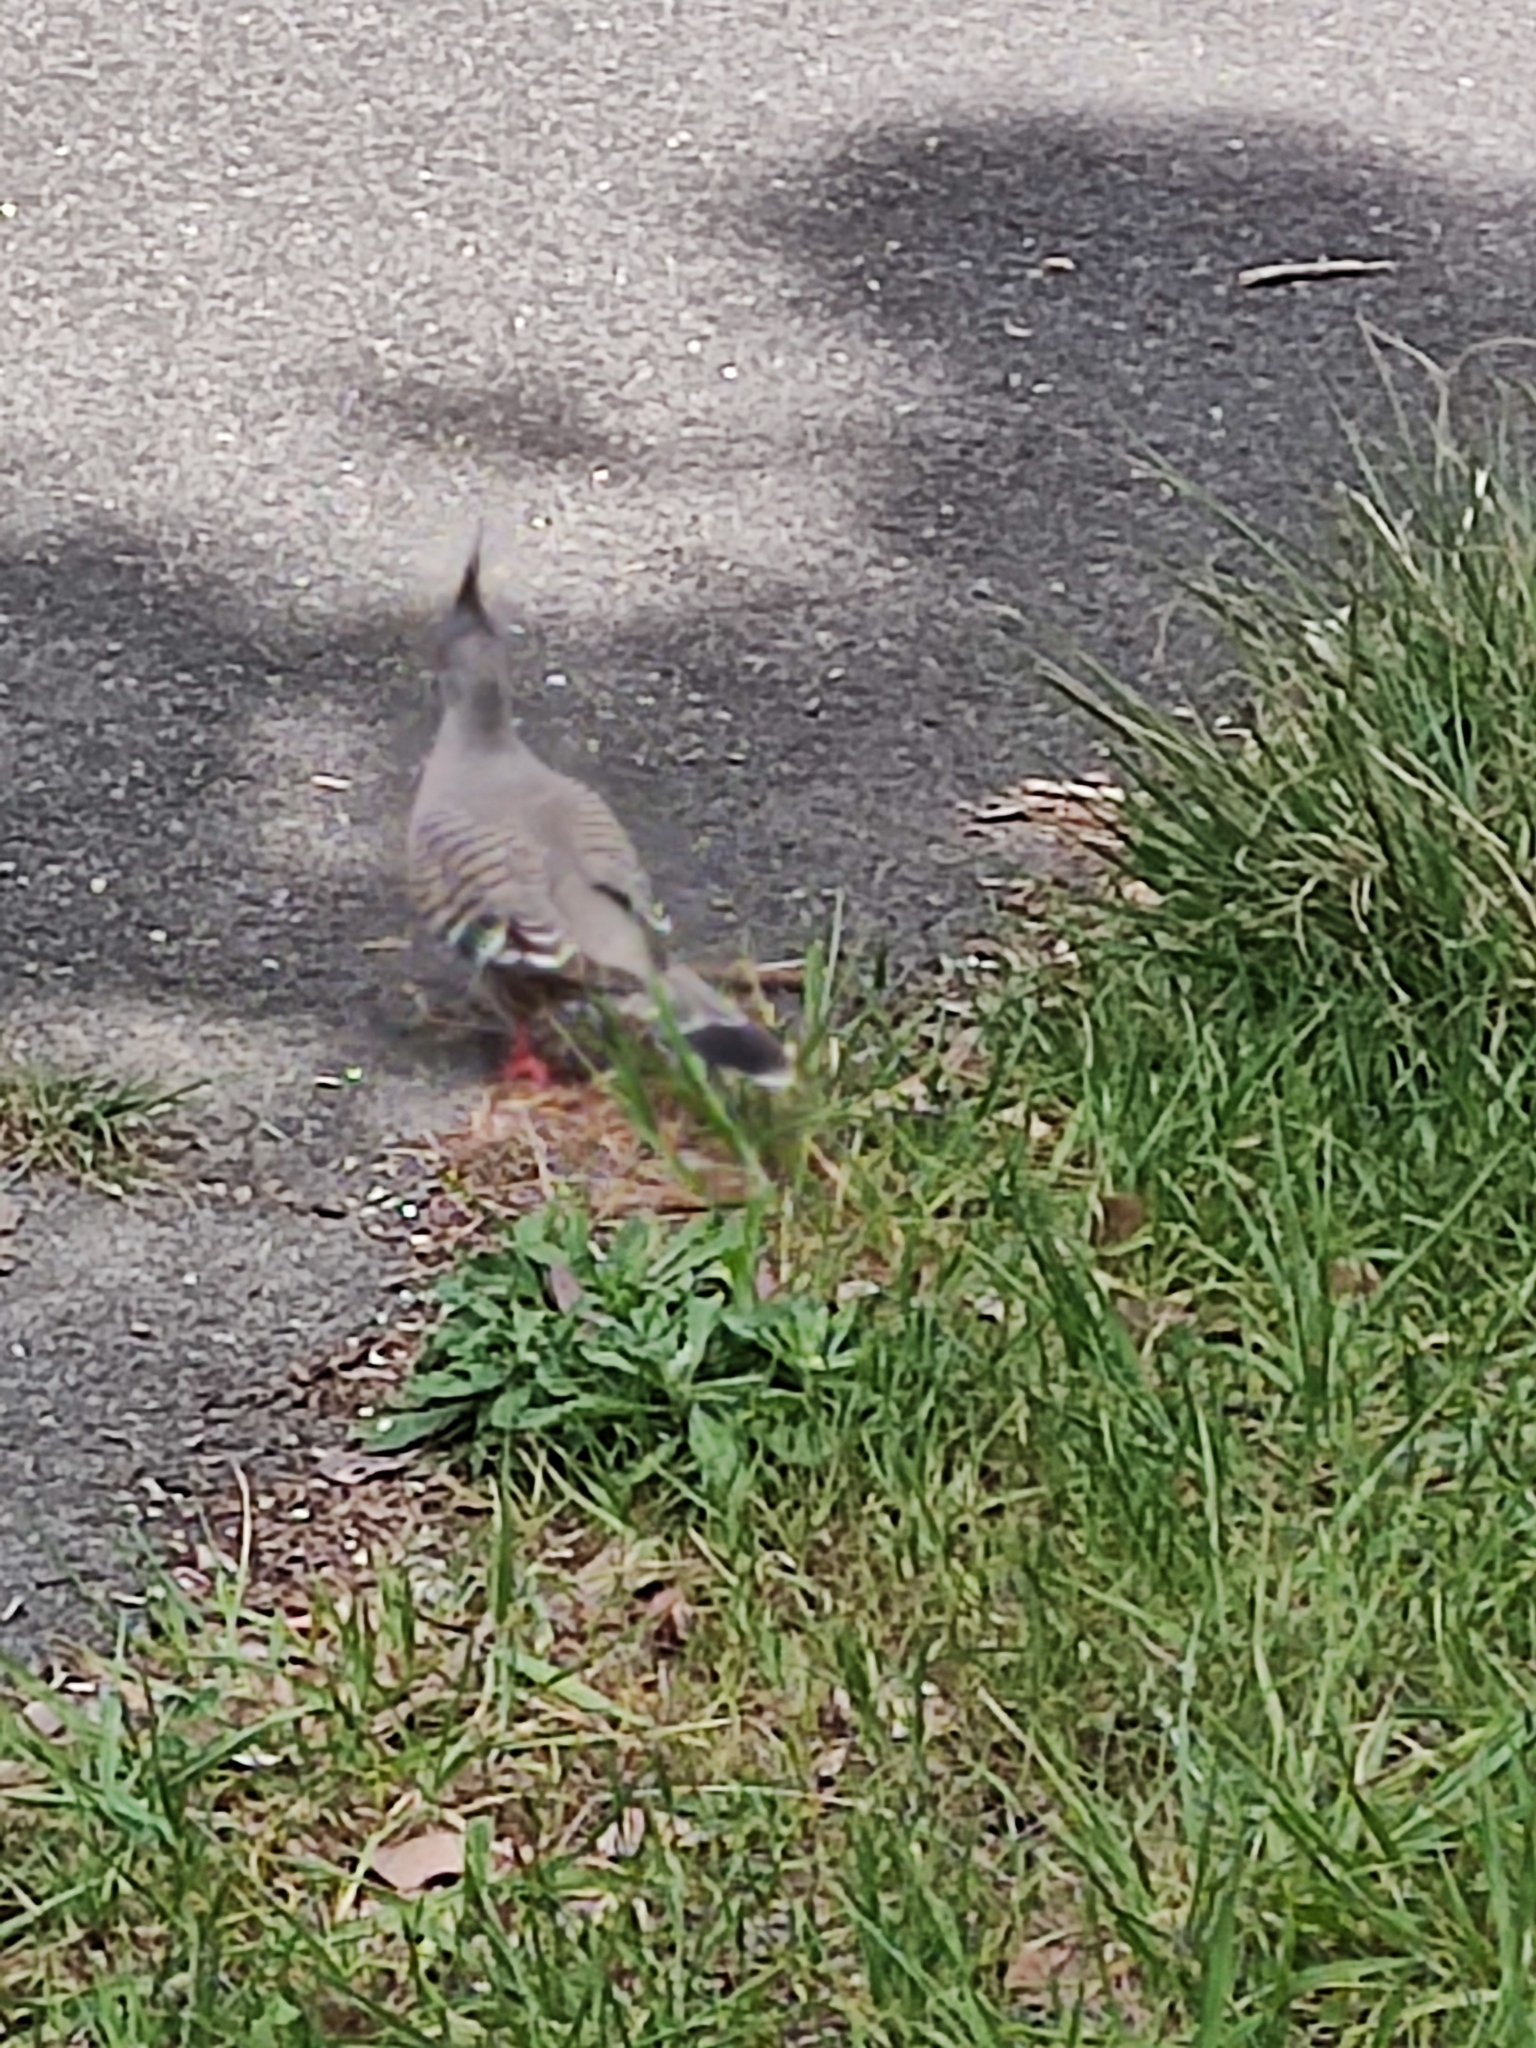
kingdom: Animalia
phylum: Chordata
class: Aves
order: Columbiformes
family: Columbidae
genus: Ocyphaps
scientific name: Ocyphaps lophotes
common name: Crested pigeon
